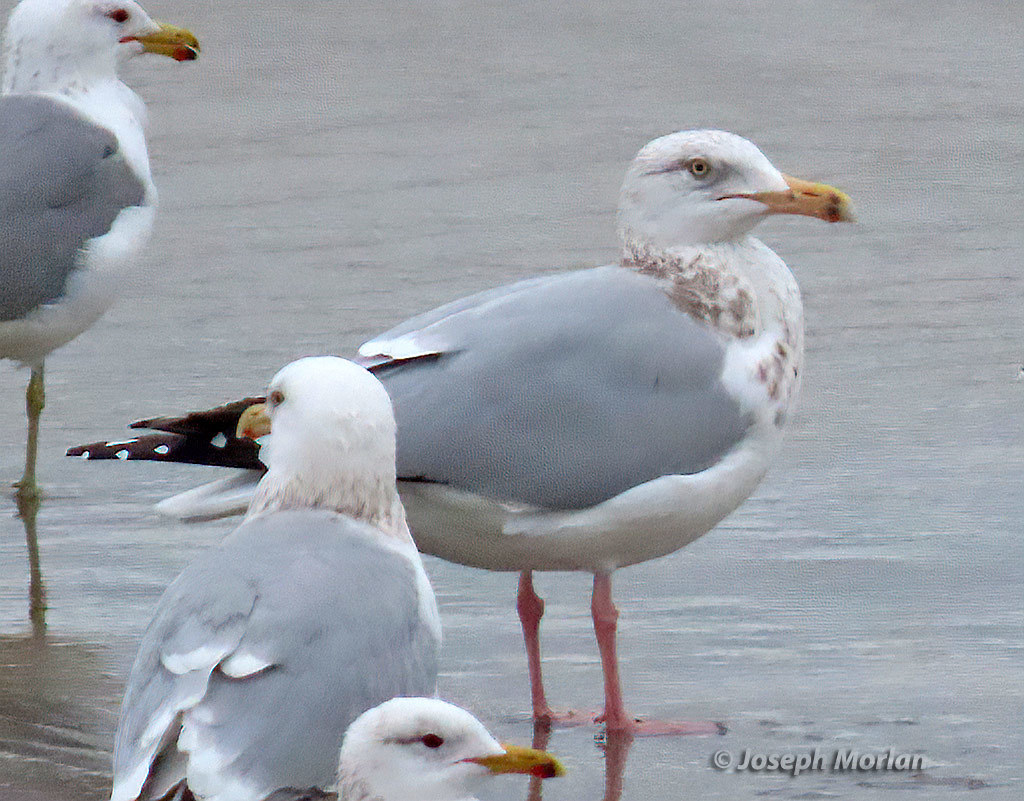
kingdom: Animalia
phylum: Chordata
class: Aves
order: Charadriiformes
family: Laridae
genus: Larus
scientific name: Larus argentatus
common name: Herring gull
